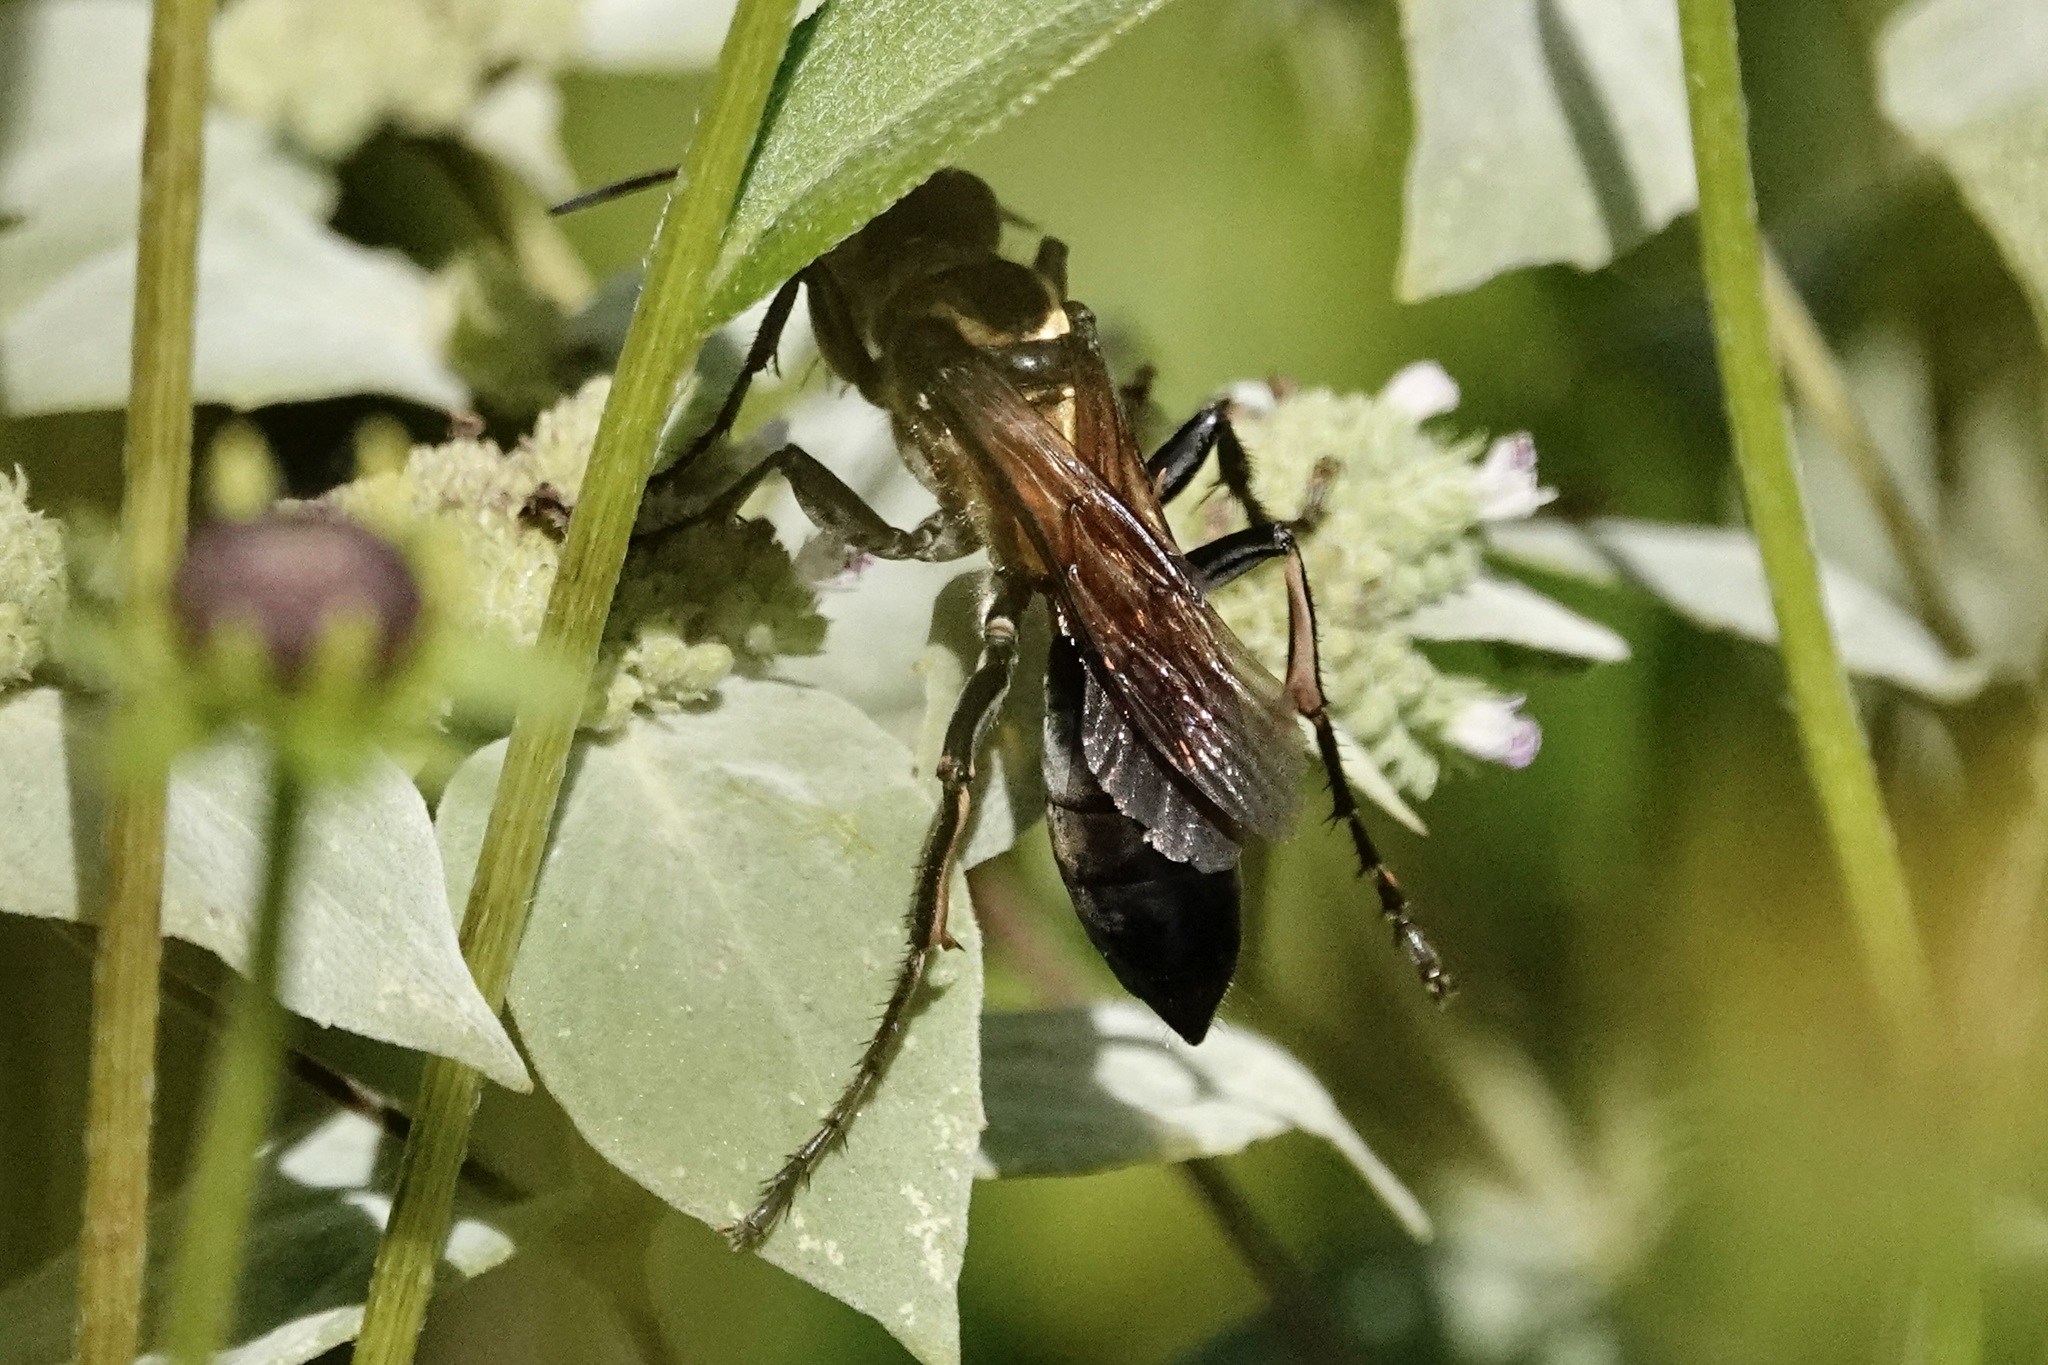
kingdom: Animalia
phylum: Arthropoda
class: Insecta
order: Hymenoptera
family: Sphecidae
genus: Sphex
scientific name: Sphex habenus
